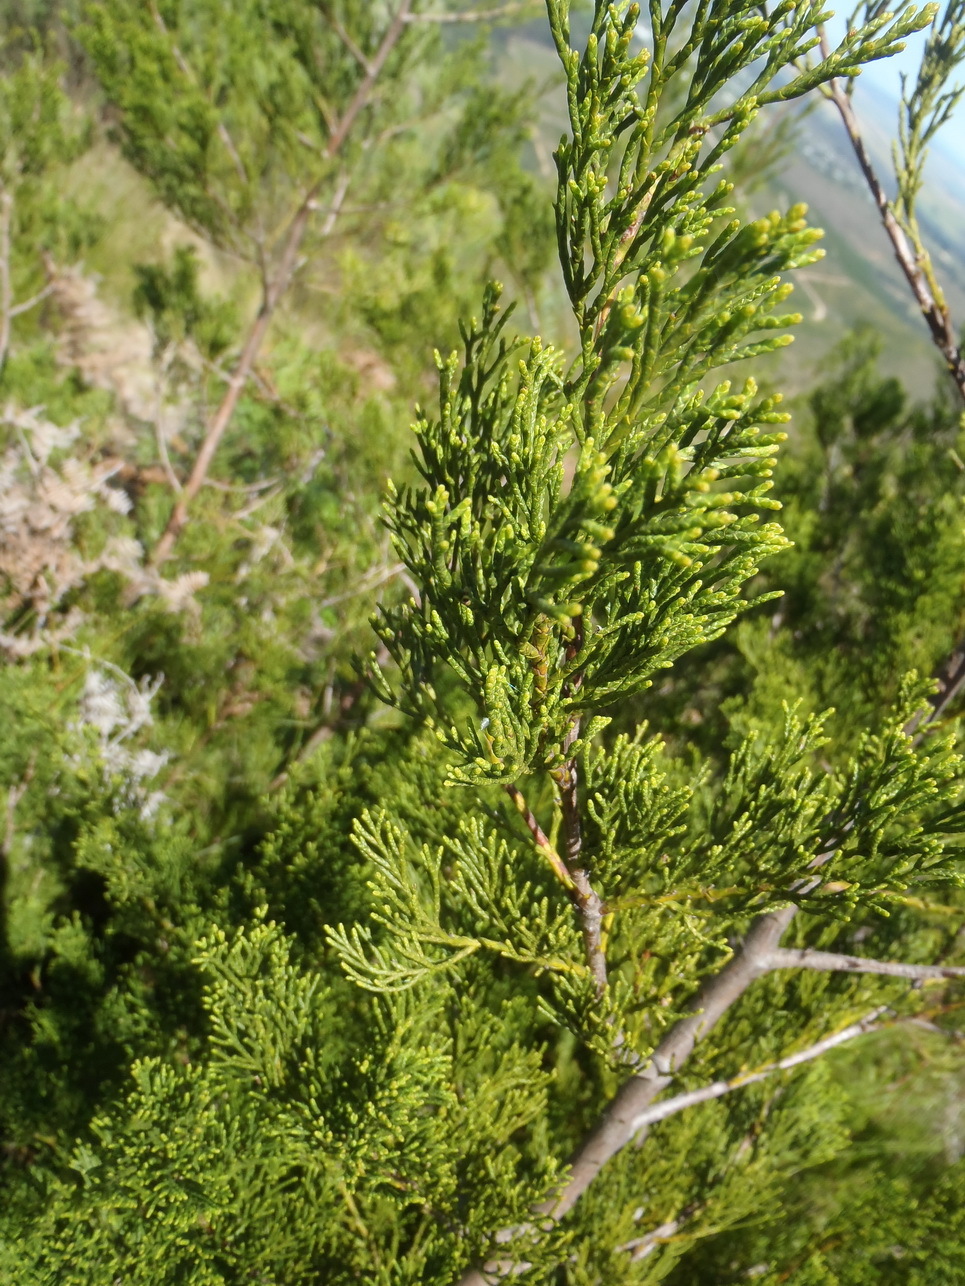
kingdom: Plantae
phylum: Tracheophyta
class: Pinopsida
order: Pinales
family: Cupressaceae
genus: Widdringtonia
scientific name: Widdringtonia nodiflora
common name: Cape cypress
